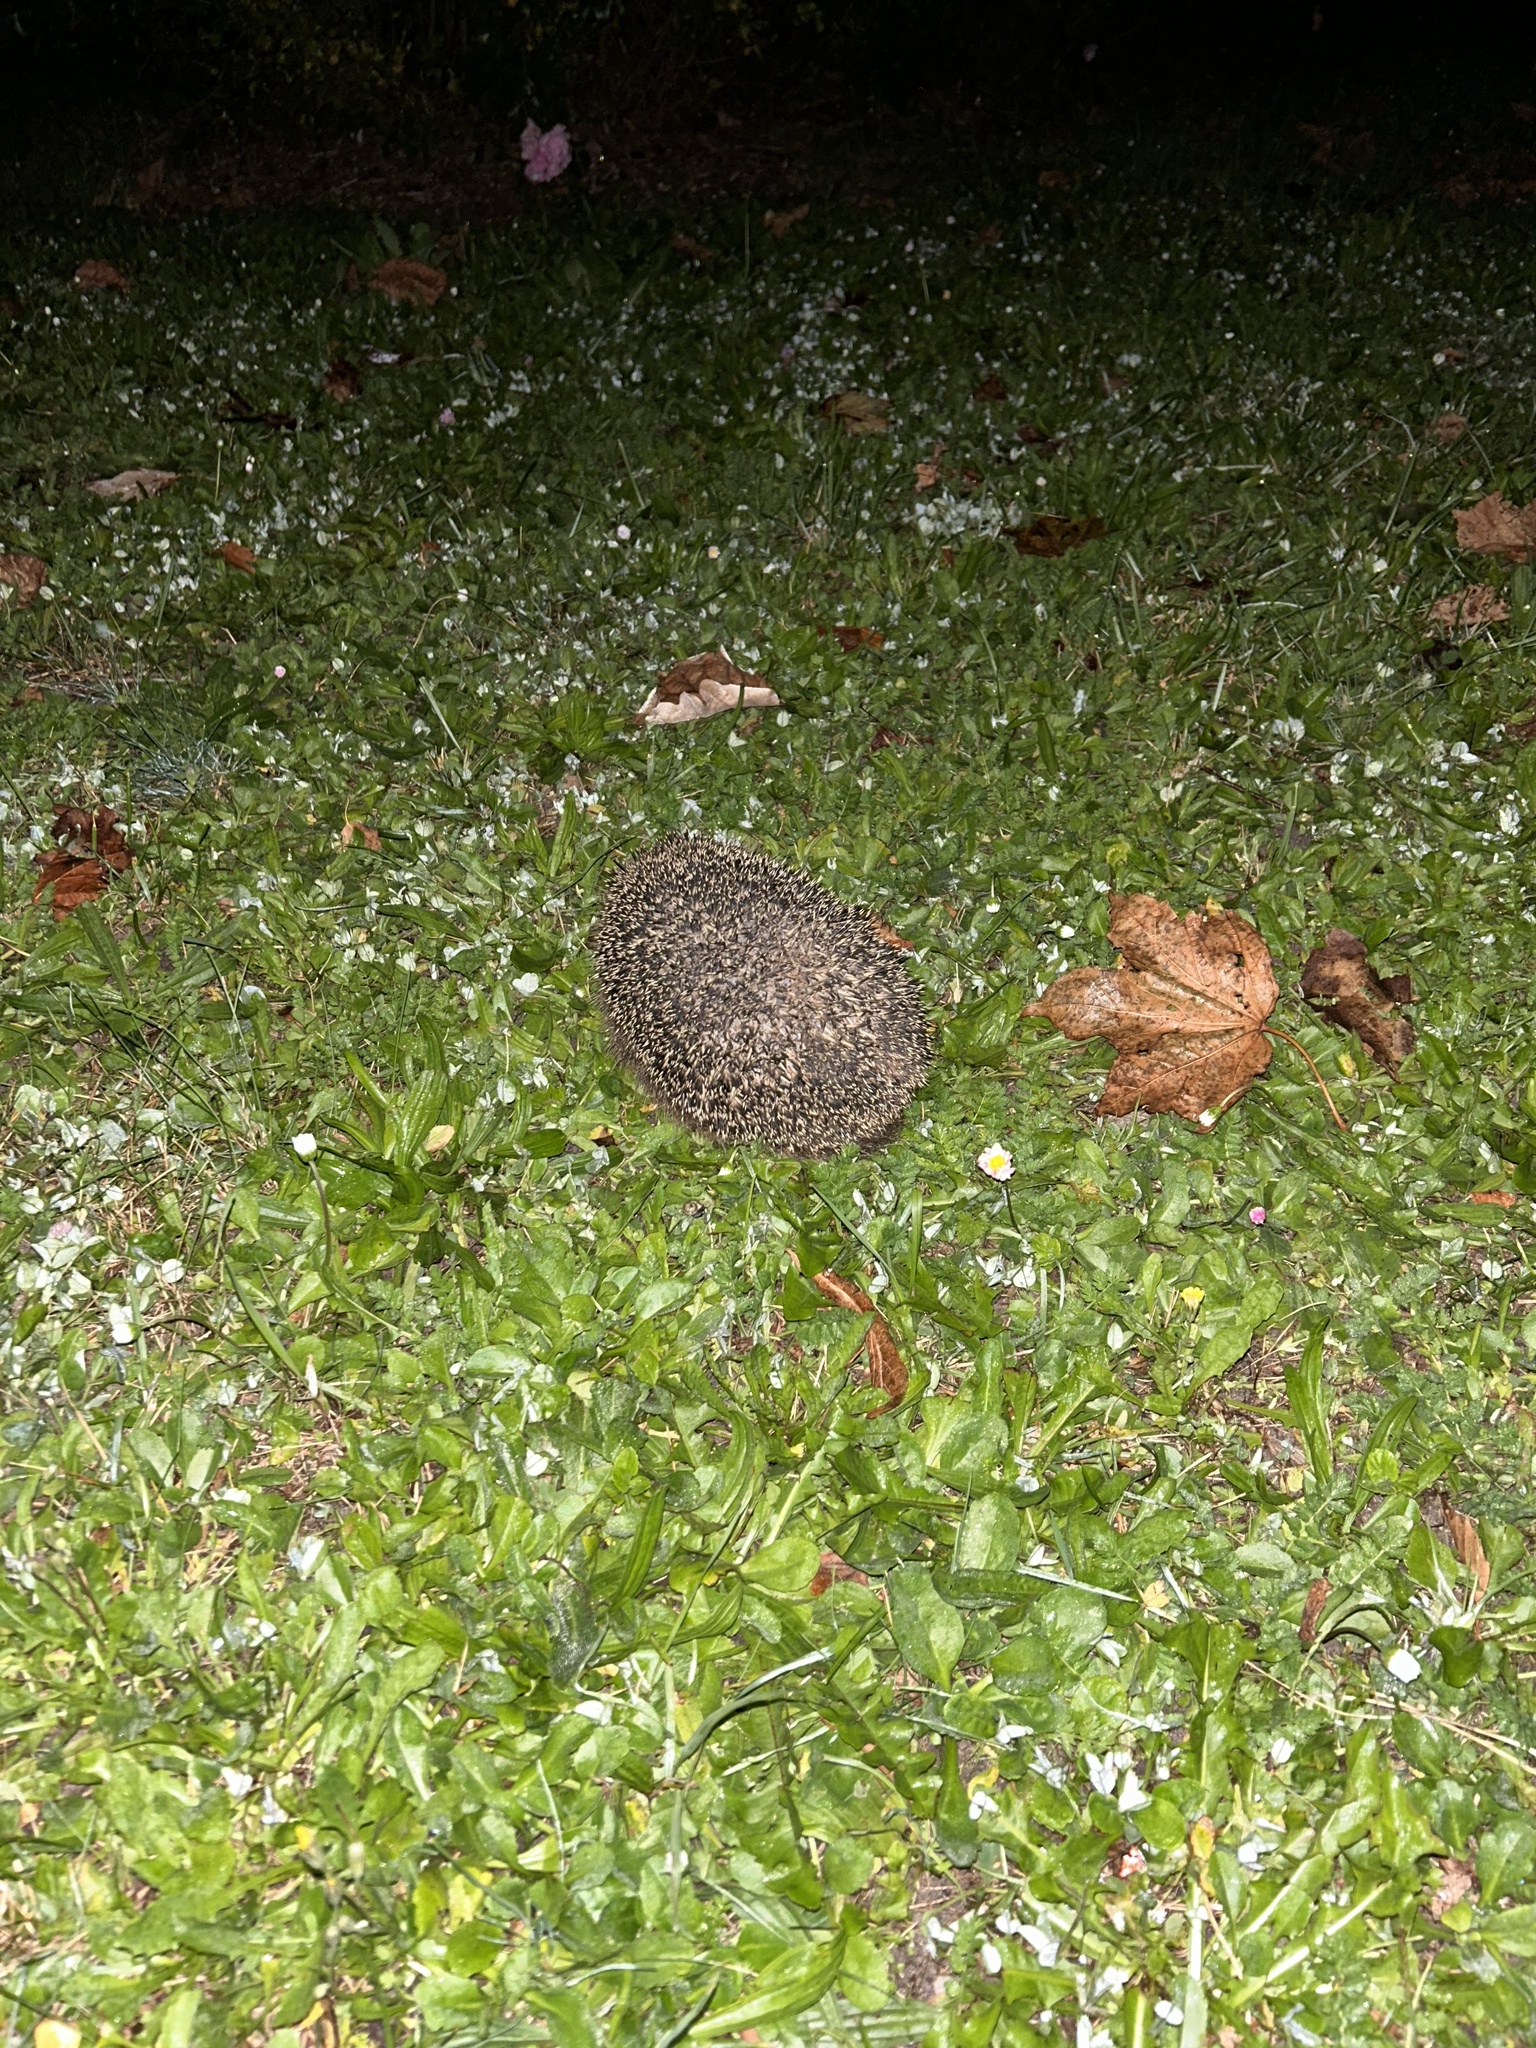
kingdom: Animalia
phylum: Chordata
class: Mammalia
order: Erinaceomorpha
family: Erinaceidae
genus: Erinaceus
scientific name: Erinaceus europaeus
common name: West european hedgehog
